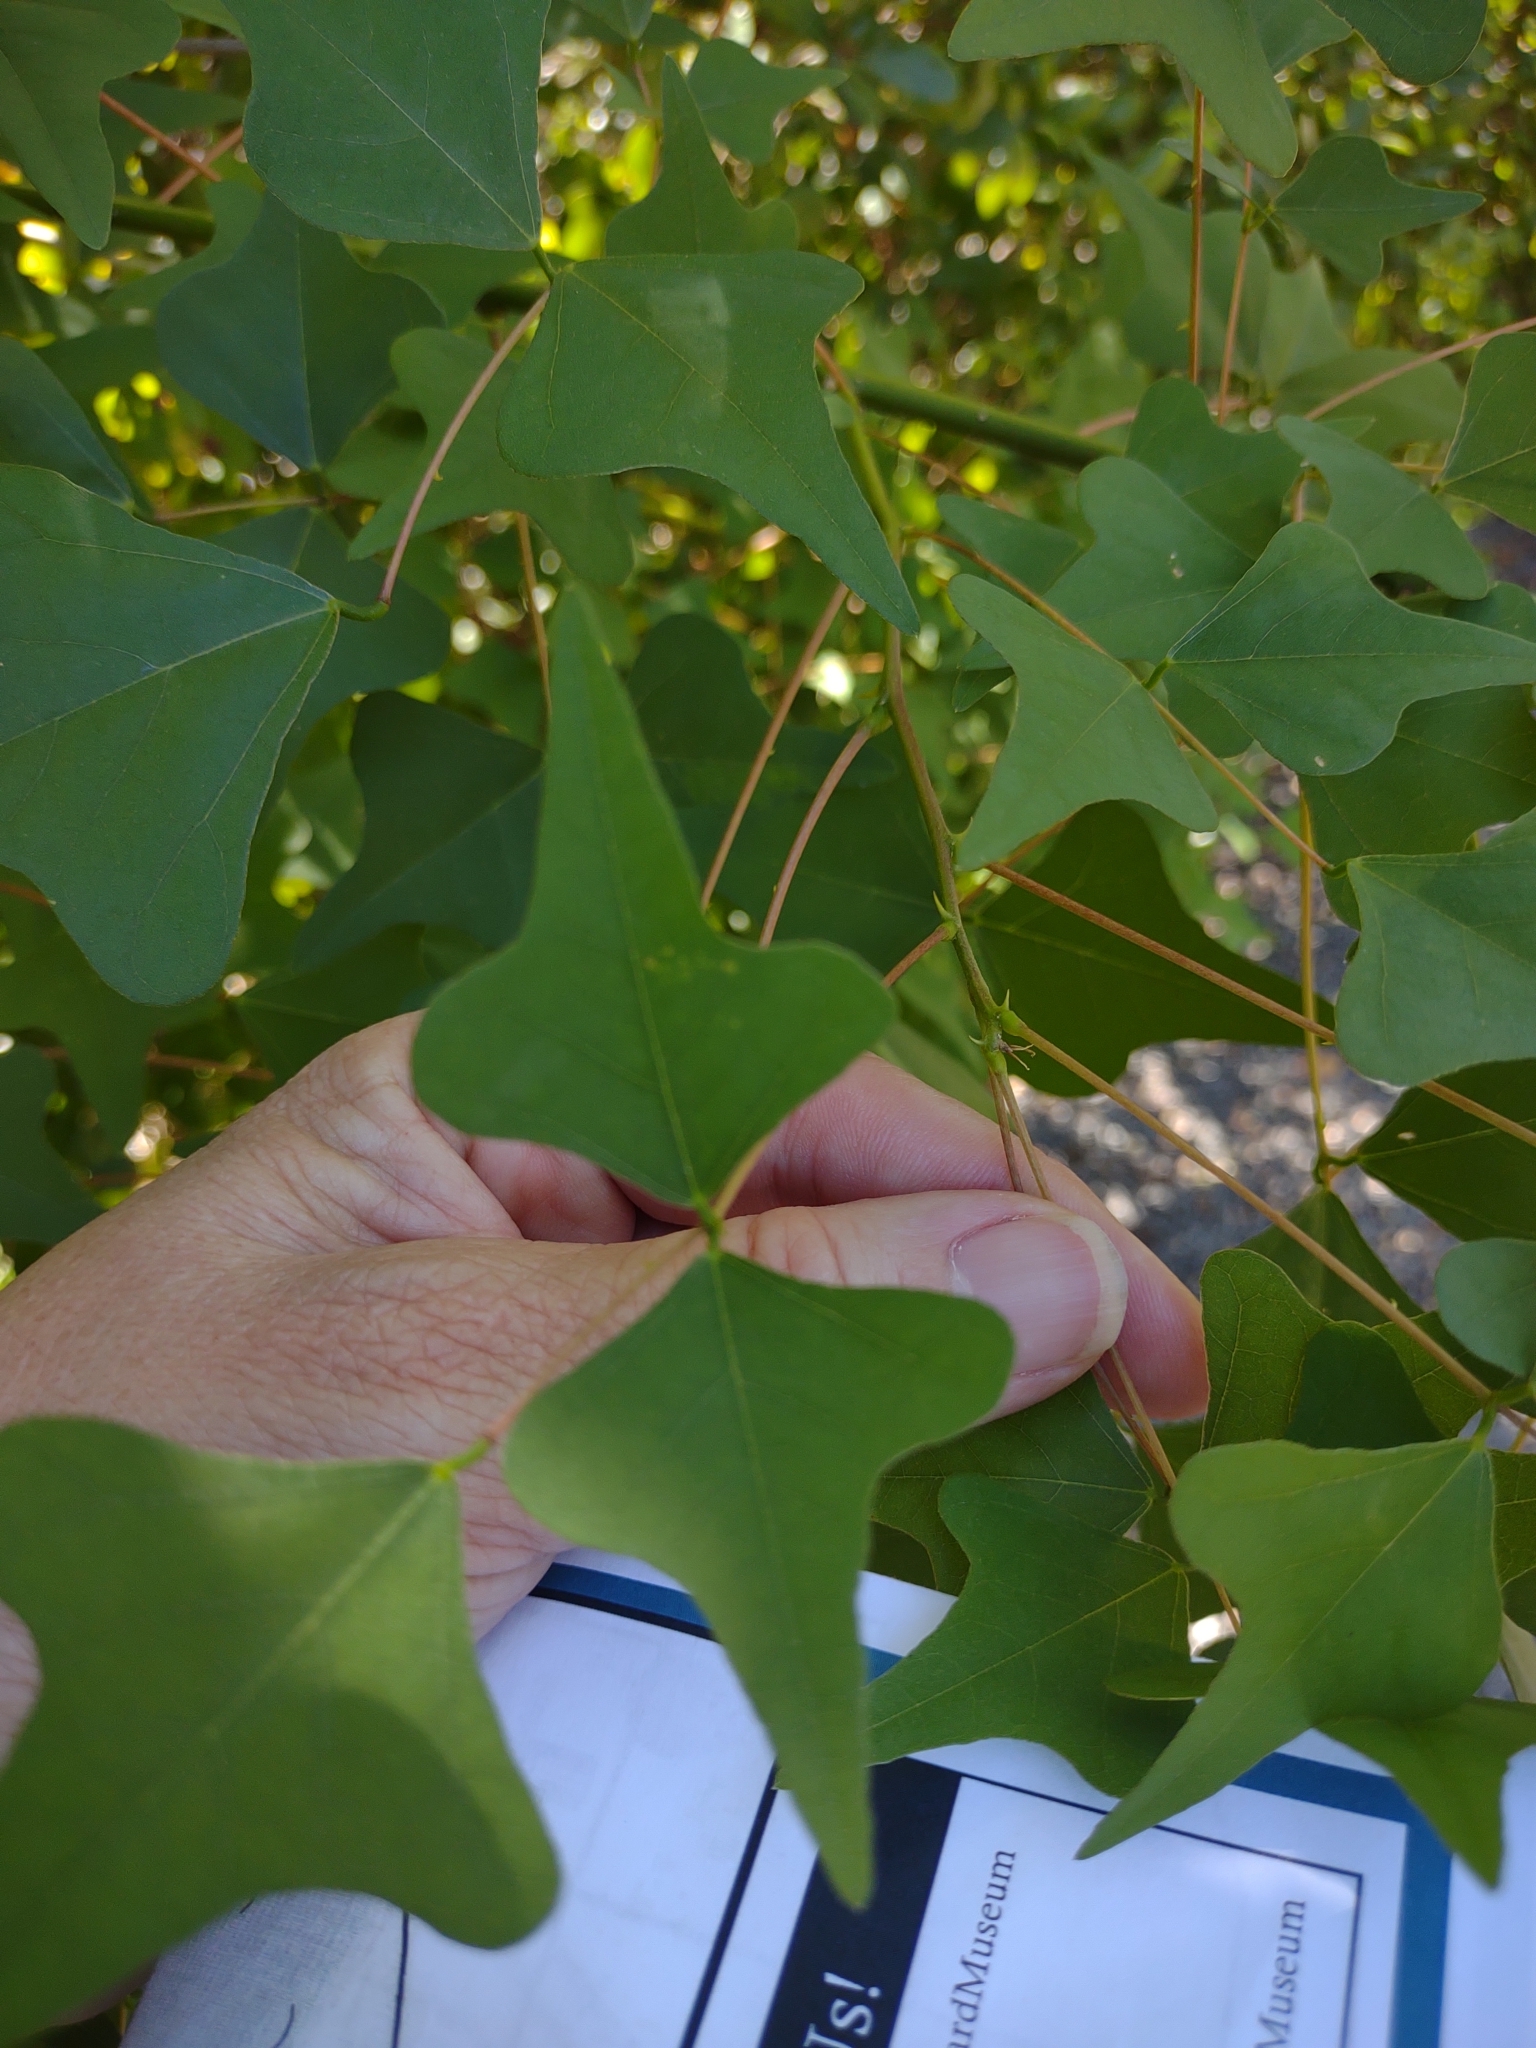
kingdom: Plantae
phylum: Tracheophyta
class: Magnoliopsida
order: Fabales
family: Fabaceae
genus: Erythrina
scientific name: Erythrina herbacea
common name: Coral-bean
